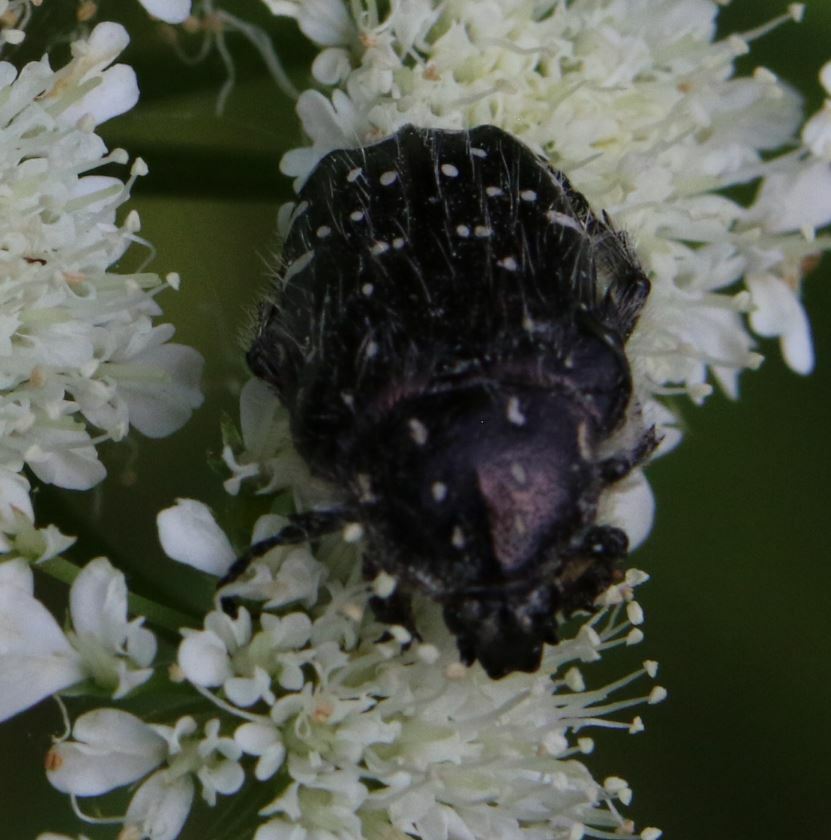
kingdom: Animalia
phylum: Arthropoda
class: Insecta
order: Coleoptera
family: Scarabaeidae
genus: Oxythyrea
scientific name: Oxythyrea funesta
